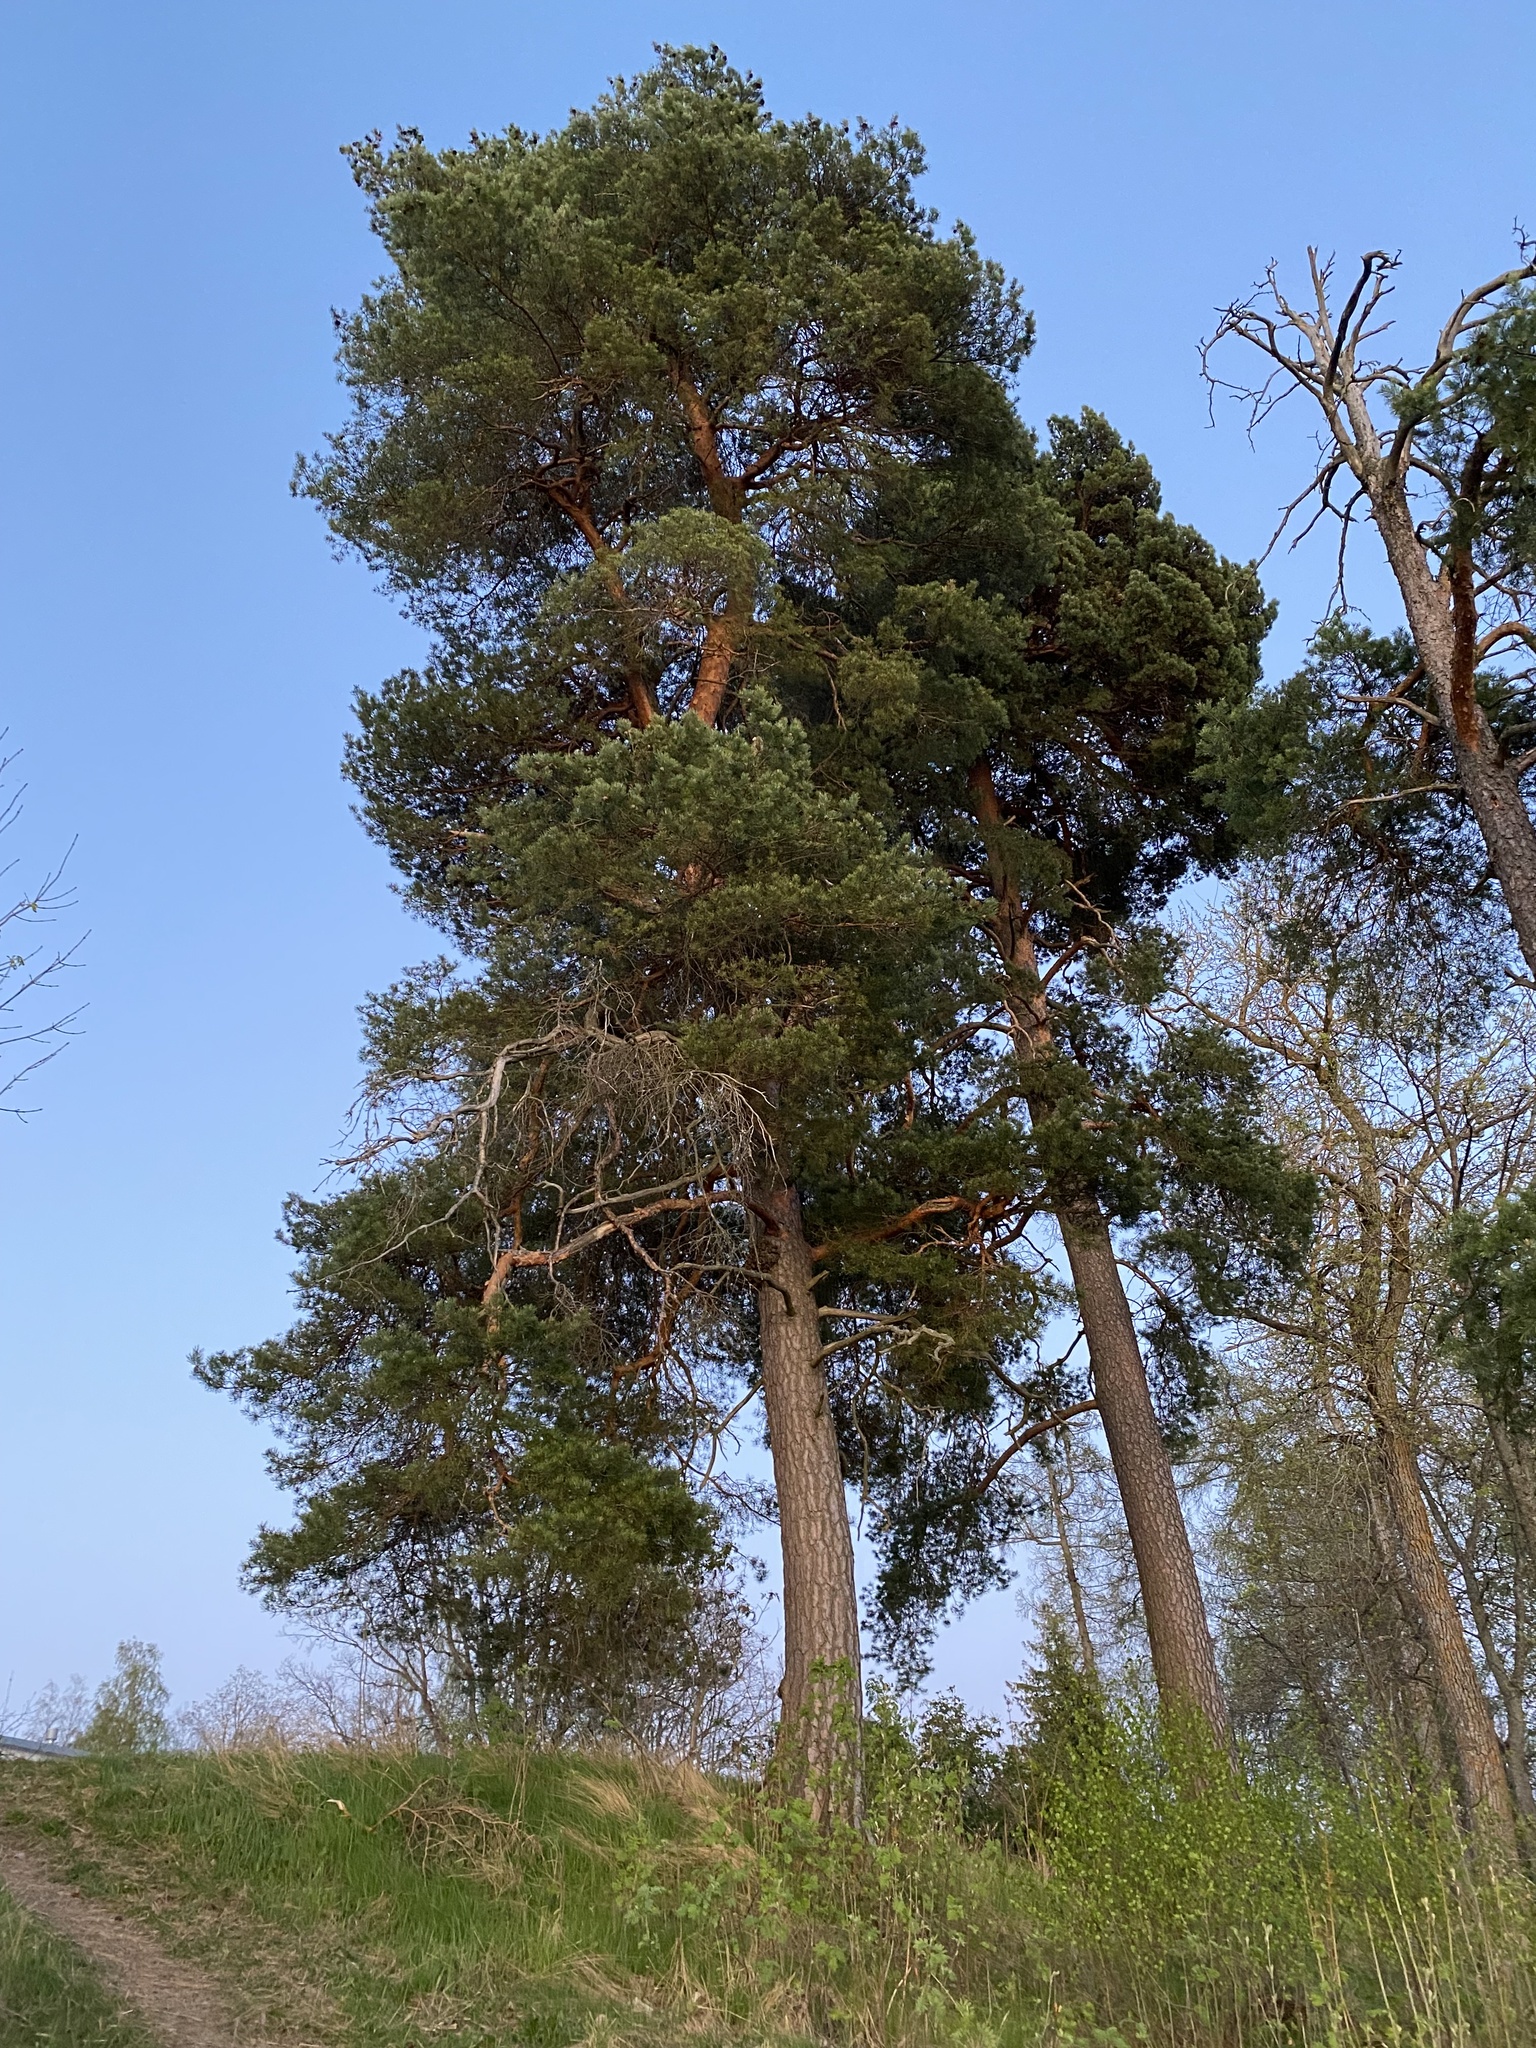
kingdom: Plantae
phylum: Tracheophyta
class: Pinopsida
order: Pinales
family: Pinaceae
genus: Pinus
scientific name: Pinus sylvestris
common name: Scots pine
